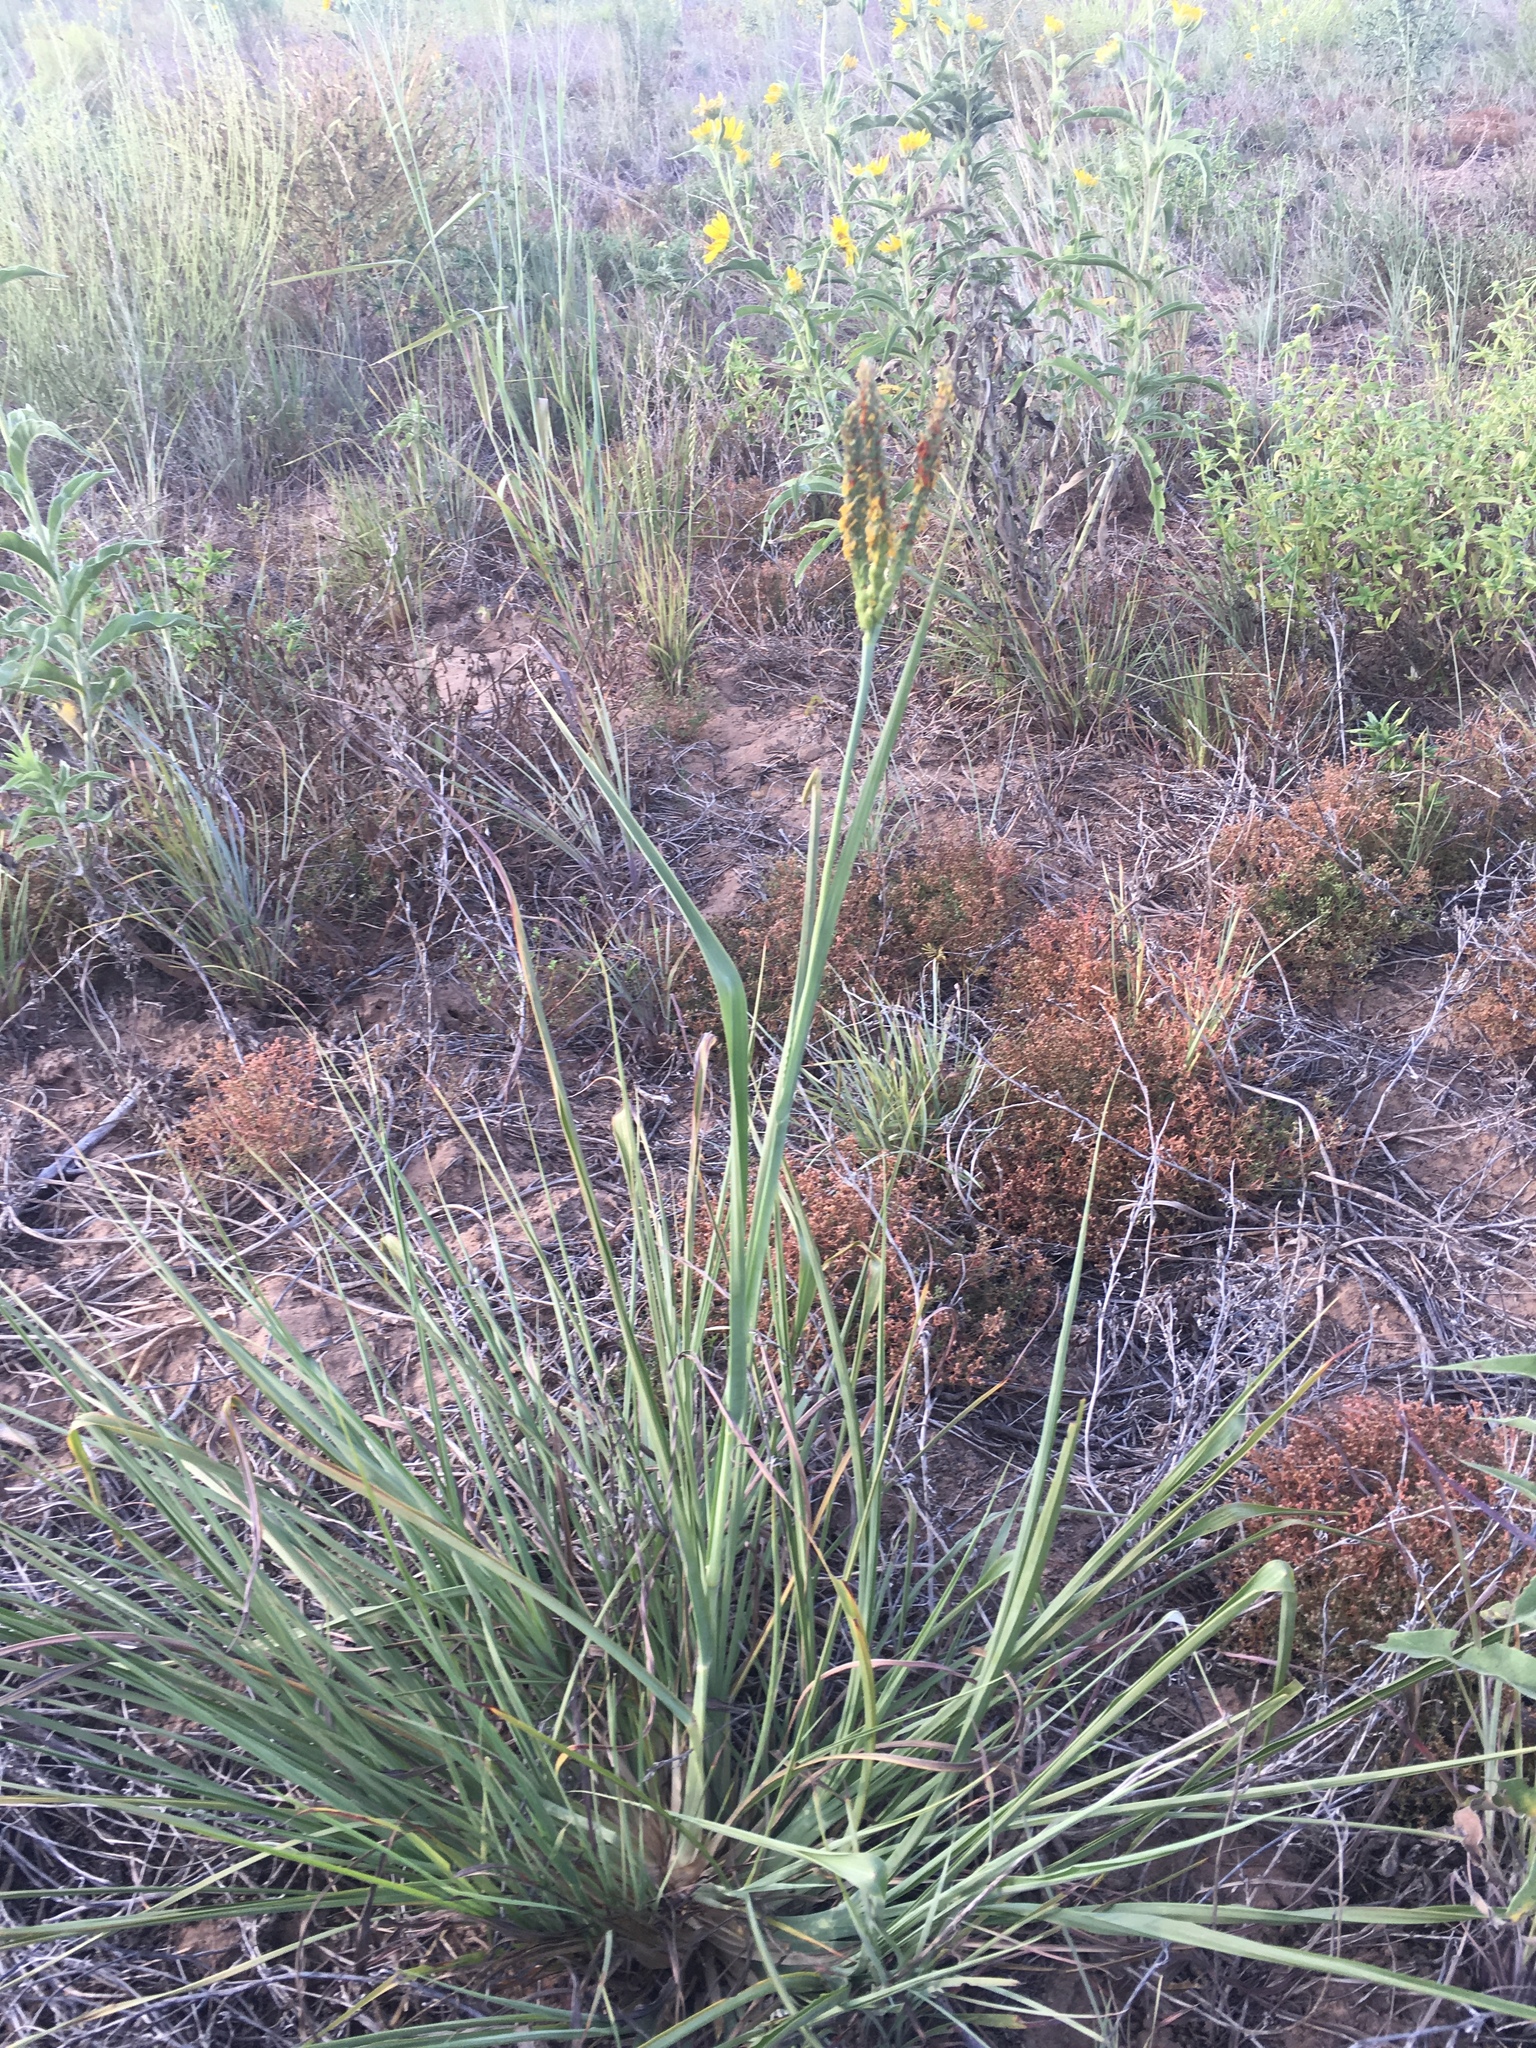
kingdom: Plantae
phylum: Tracheophyta
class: Liliopsida
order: Poales
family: Poaceae
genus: Tripsacum
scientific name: Tripsacum dactyloides
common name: Buffalo-grass
